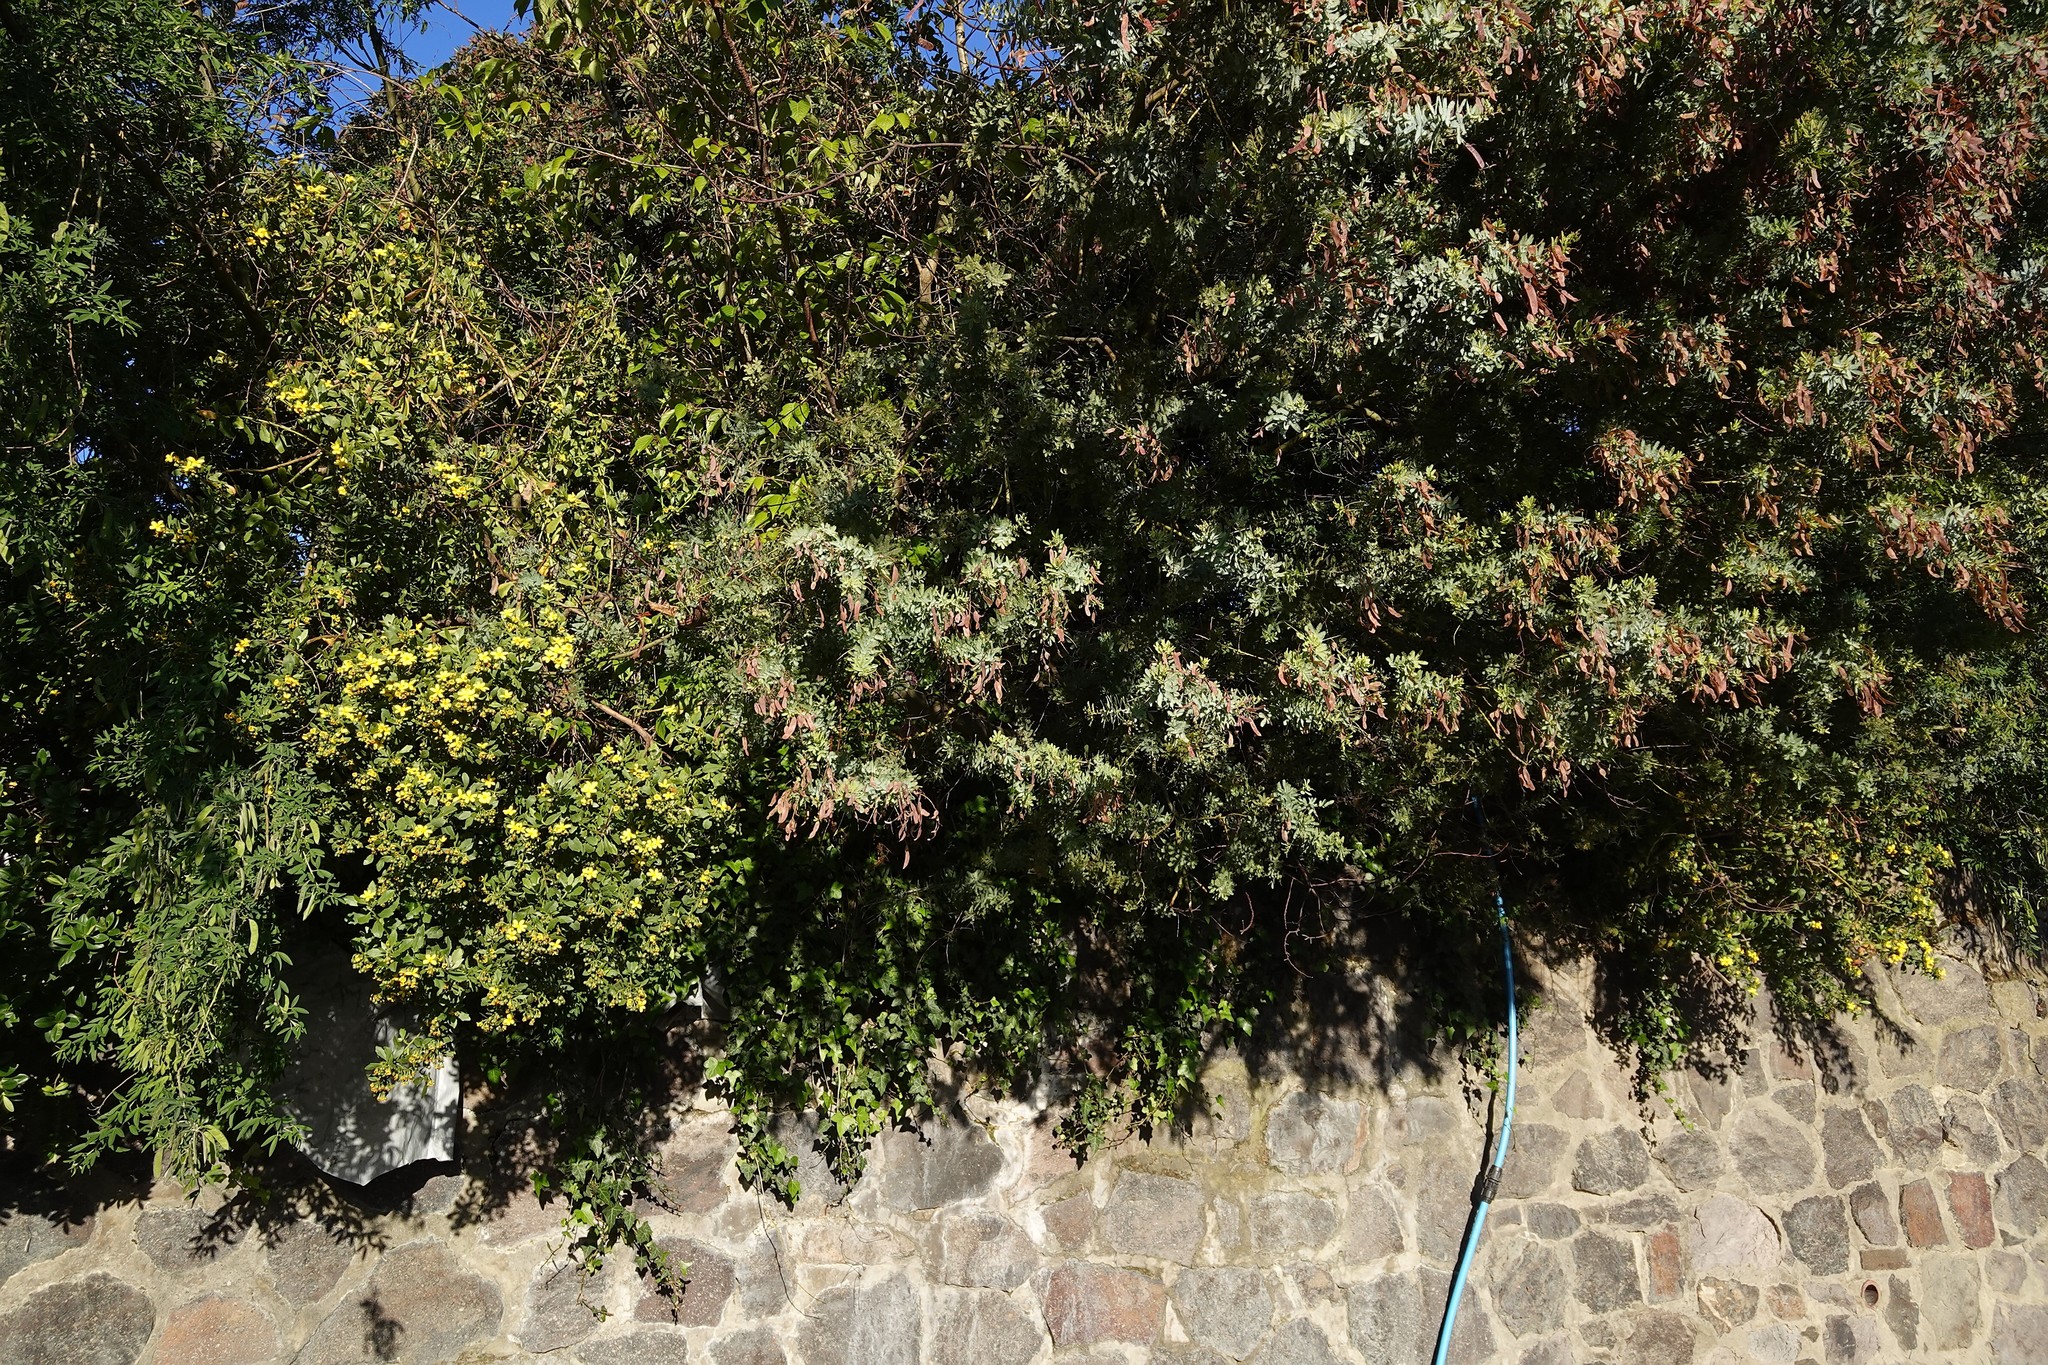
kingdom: Plantae
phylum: Tracheophyta
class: Magnoliopsida
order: Asterales
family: Asteraceae
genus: Osteospermum
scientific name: Osteospermum moniliferum
